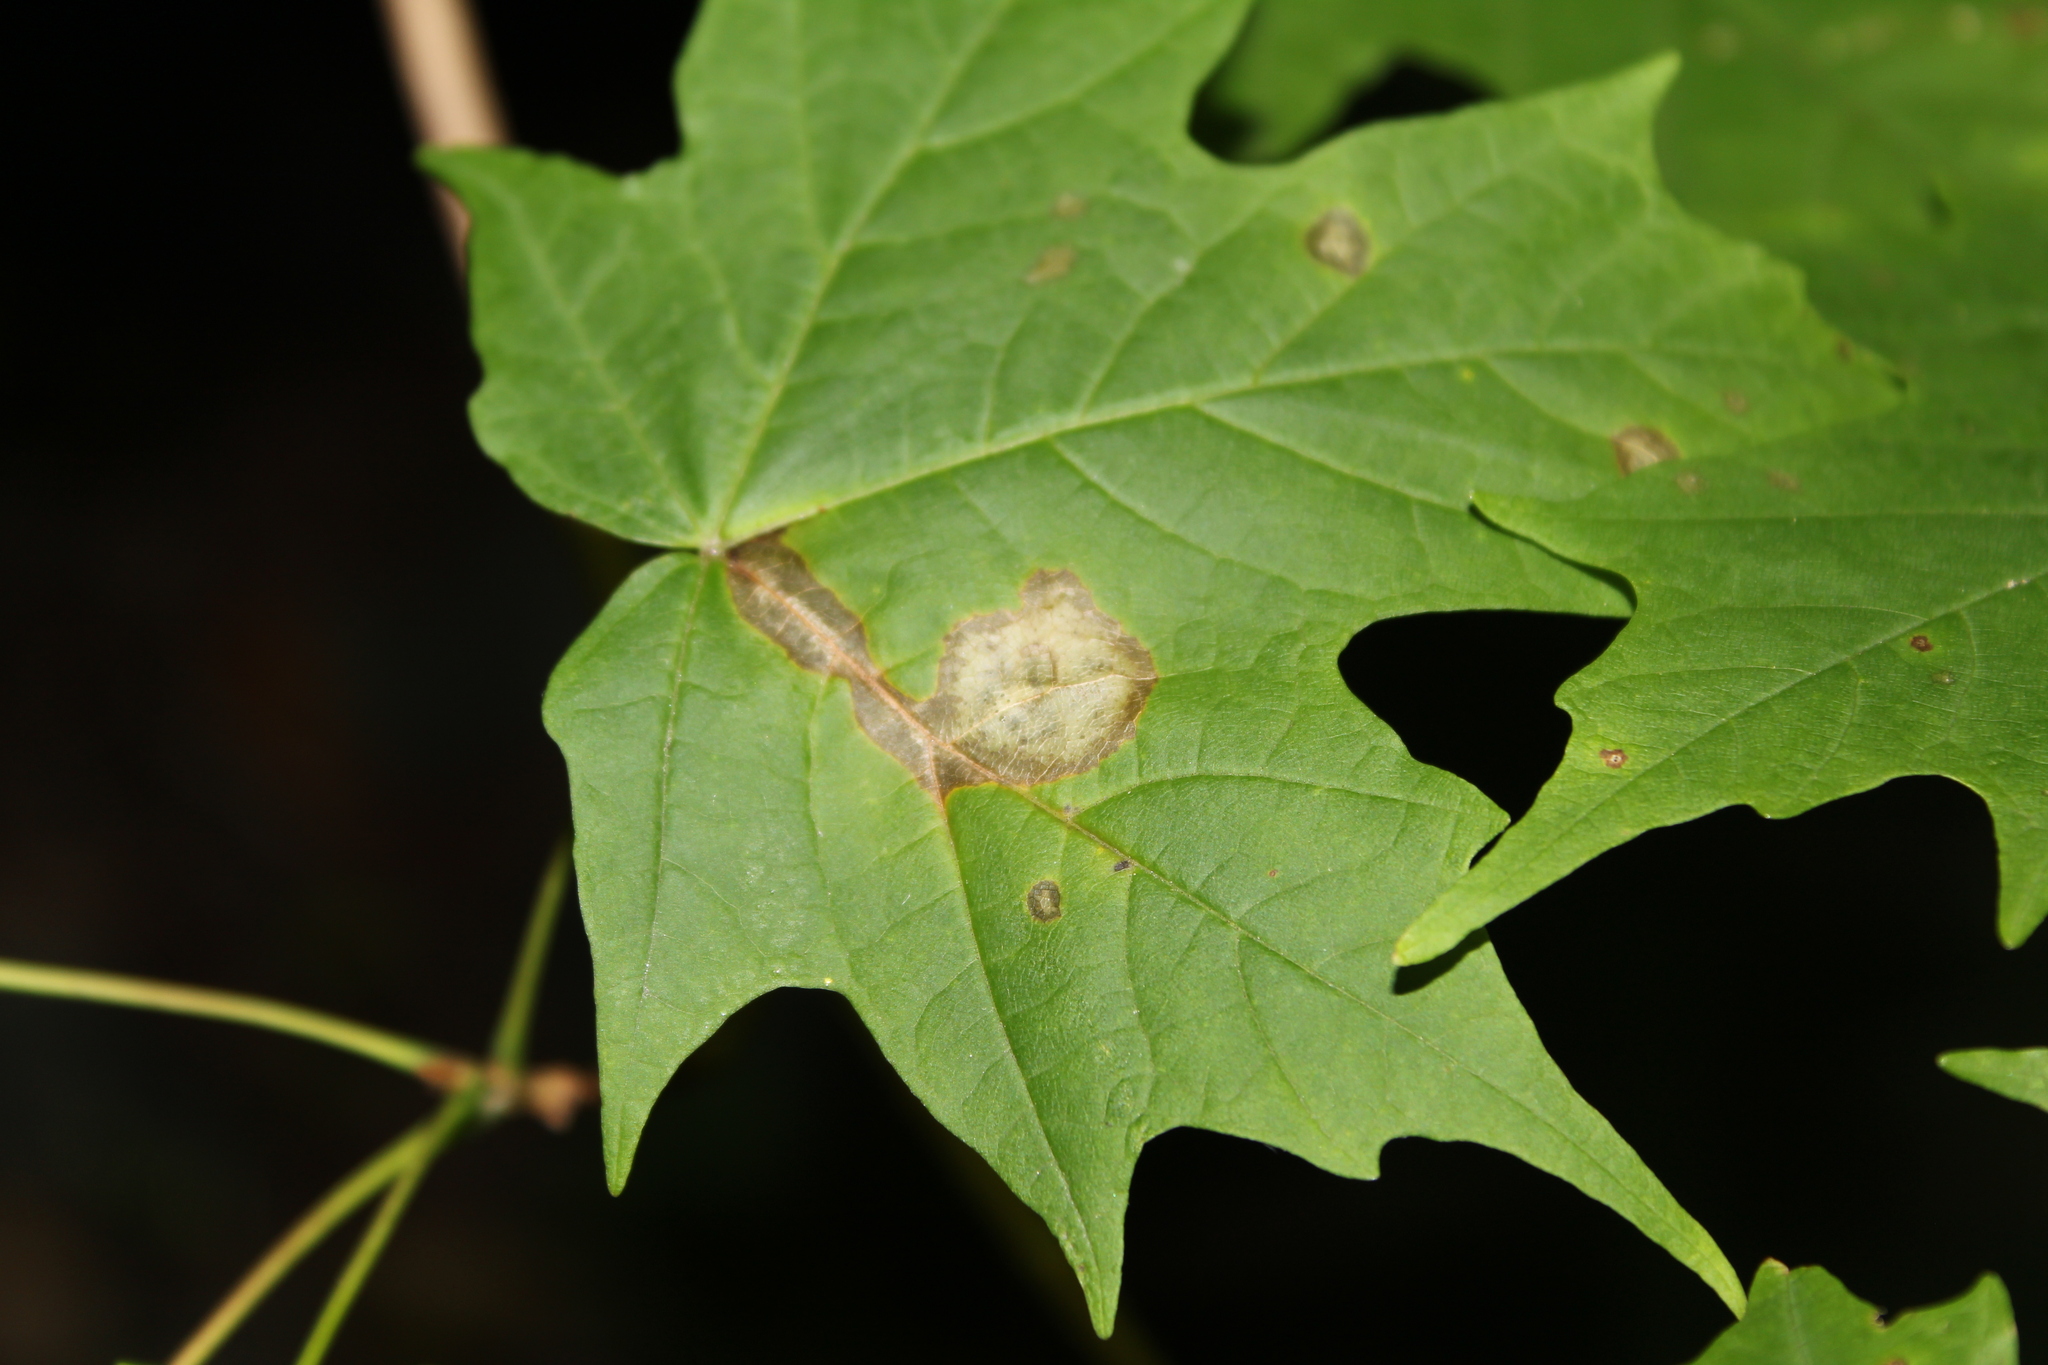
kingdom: Animalia
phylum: Arthropoda
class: Insecta
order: Diptera
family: Cecidomyiidae
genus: Acericecis
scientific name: Acericecis ocellaris
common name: Ocellate gall midge
